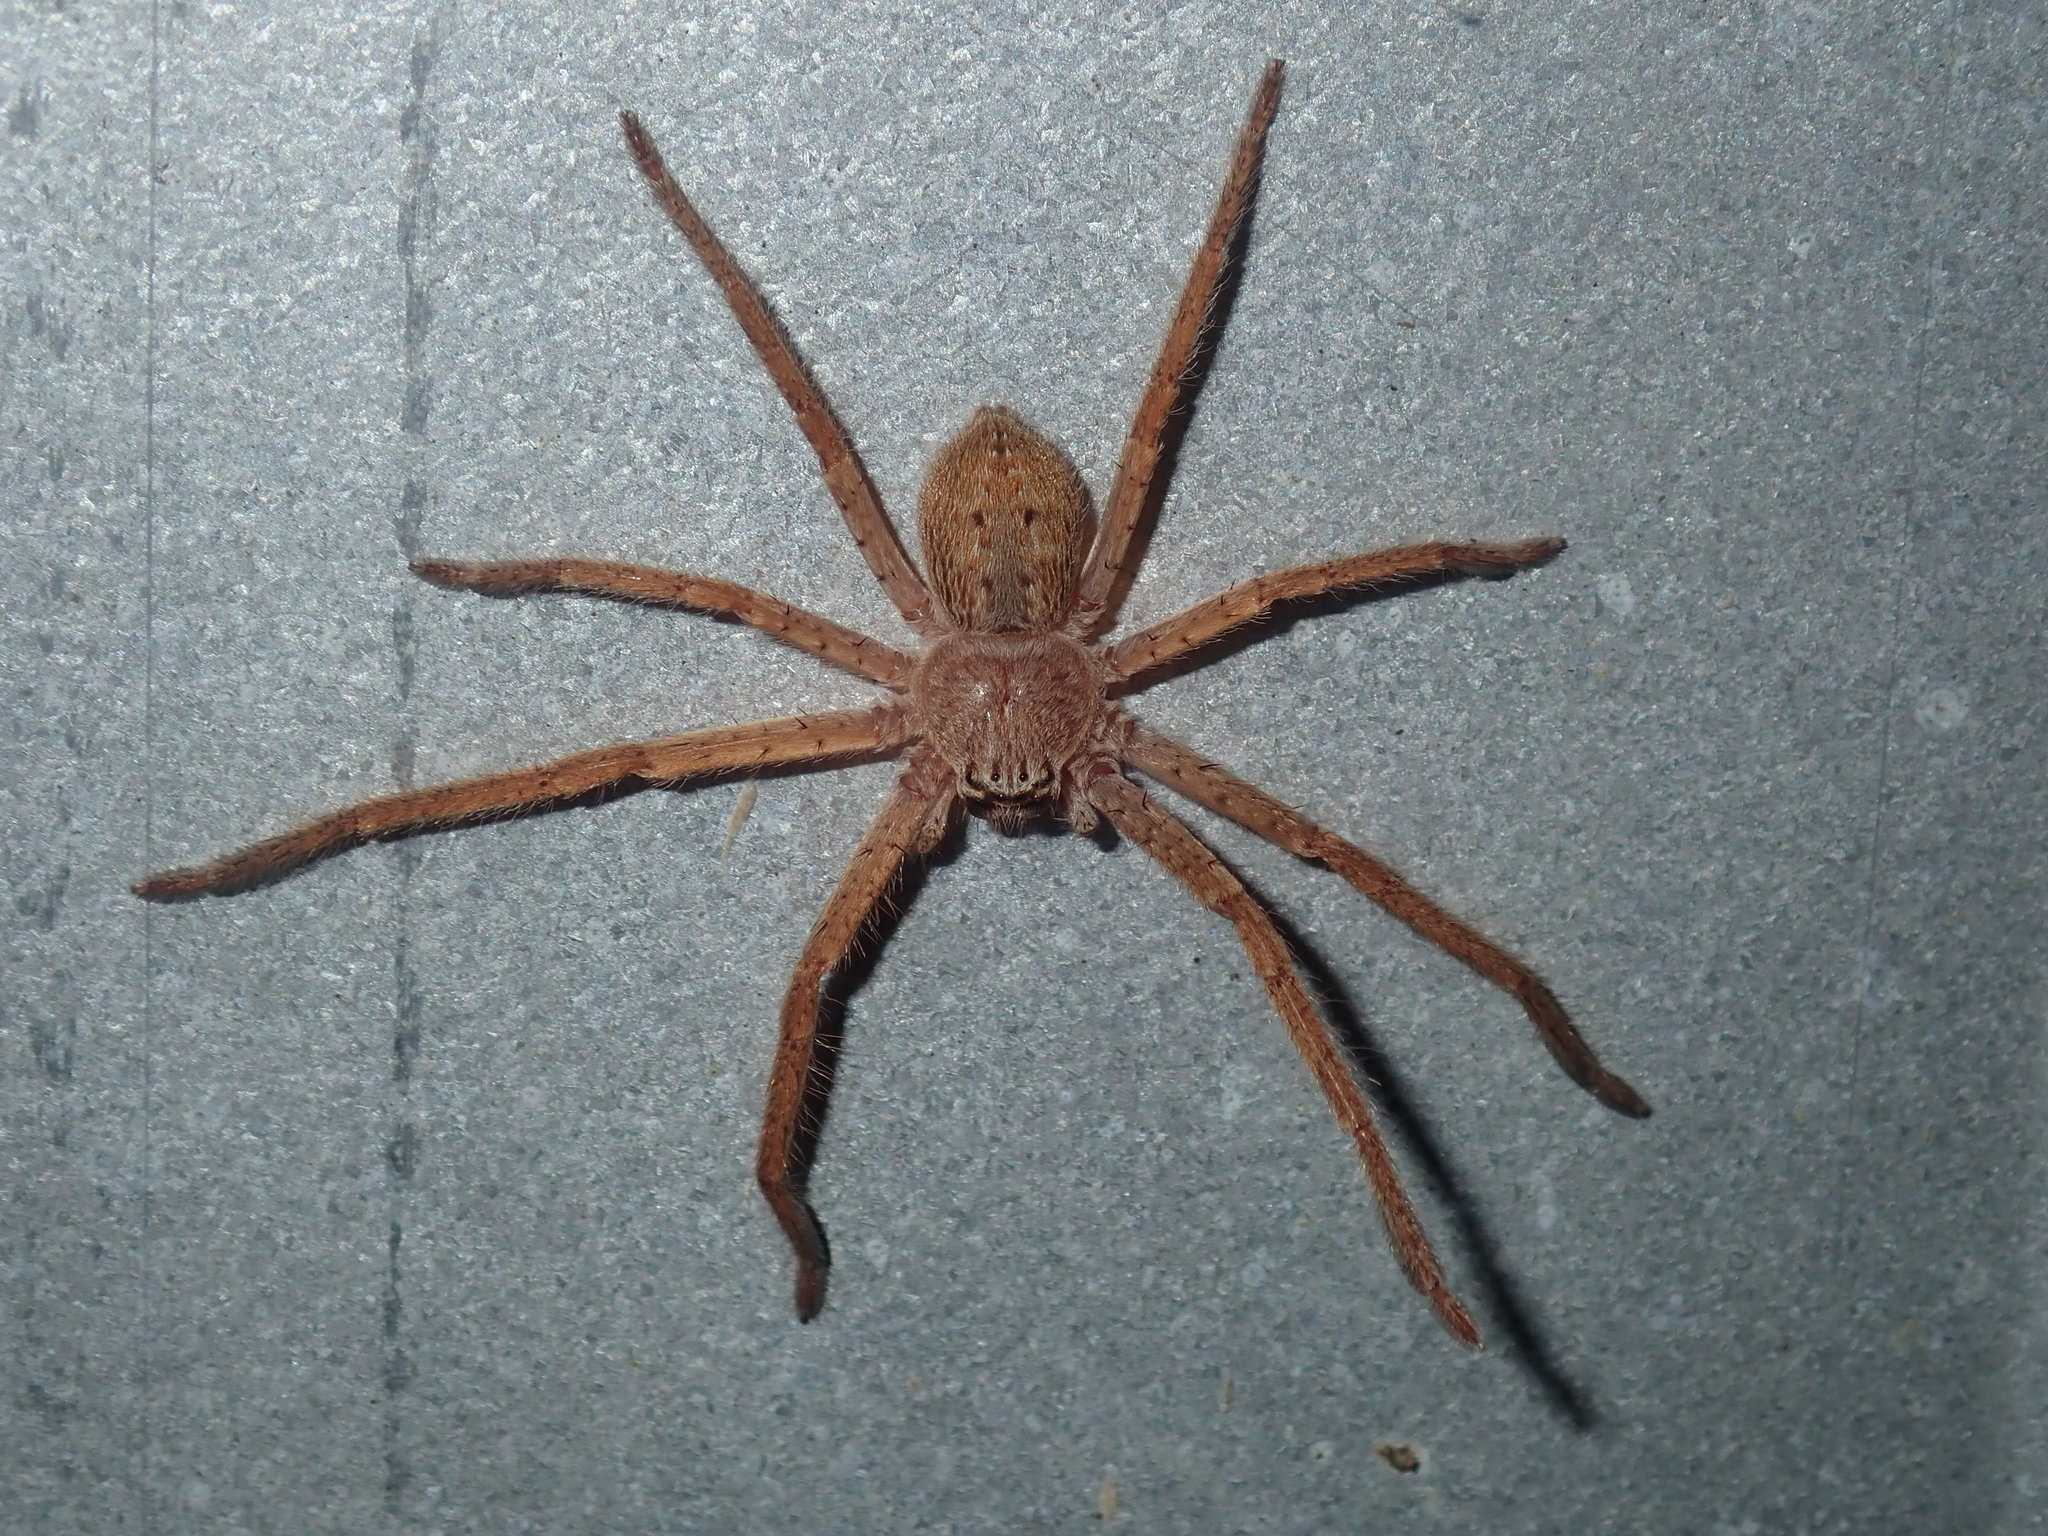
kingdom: Animalia
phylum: Arthropoda
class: Arachnida
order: Araneae
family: Sparassidae
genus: Isopeda
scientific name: Isopeda villosa
